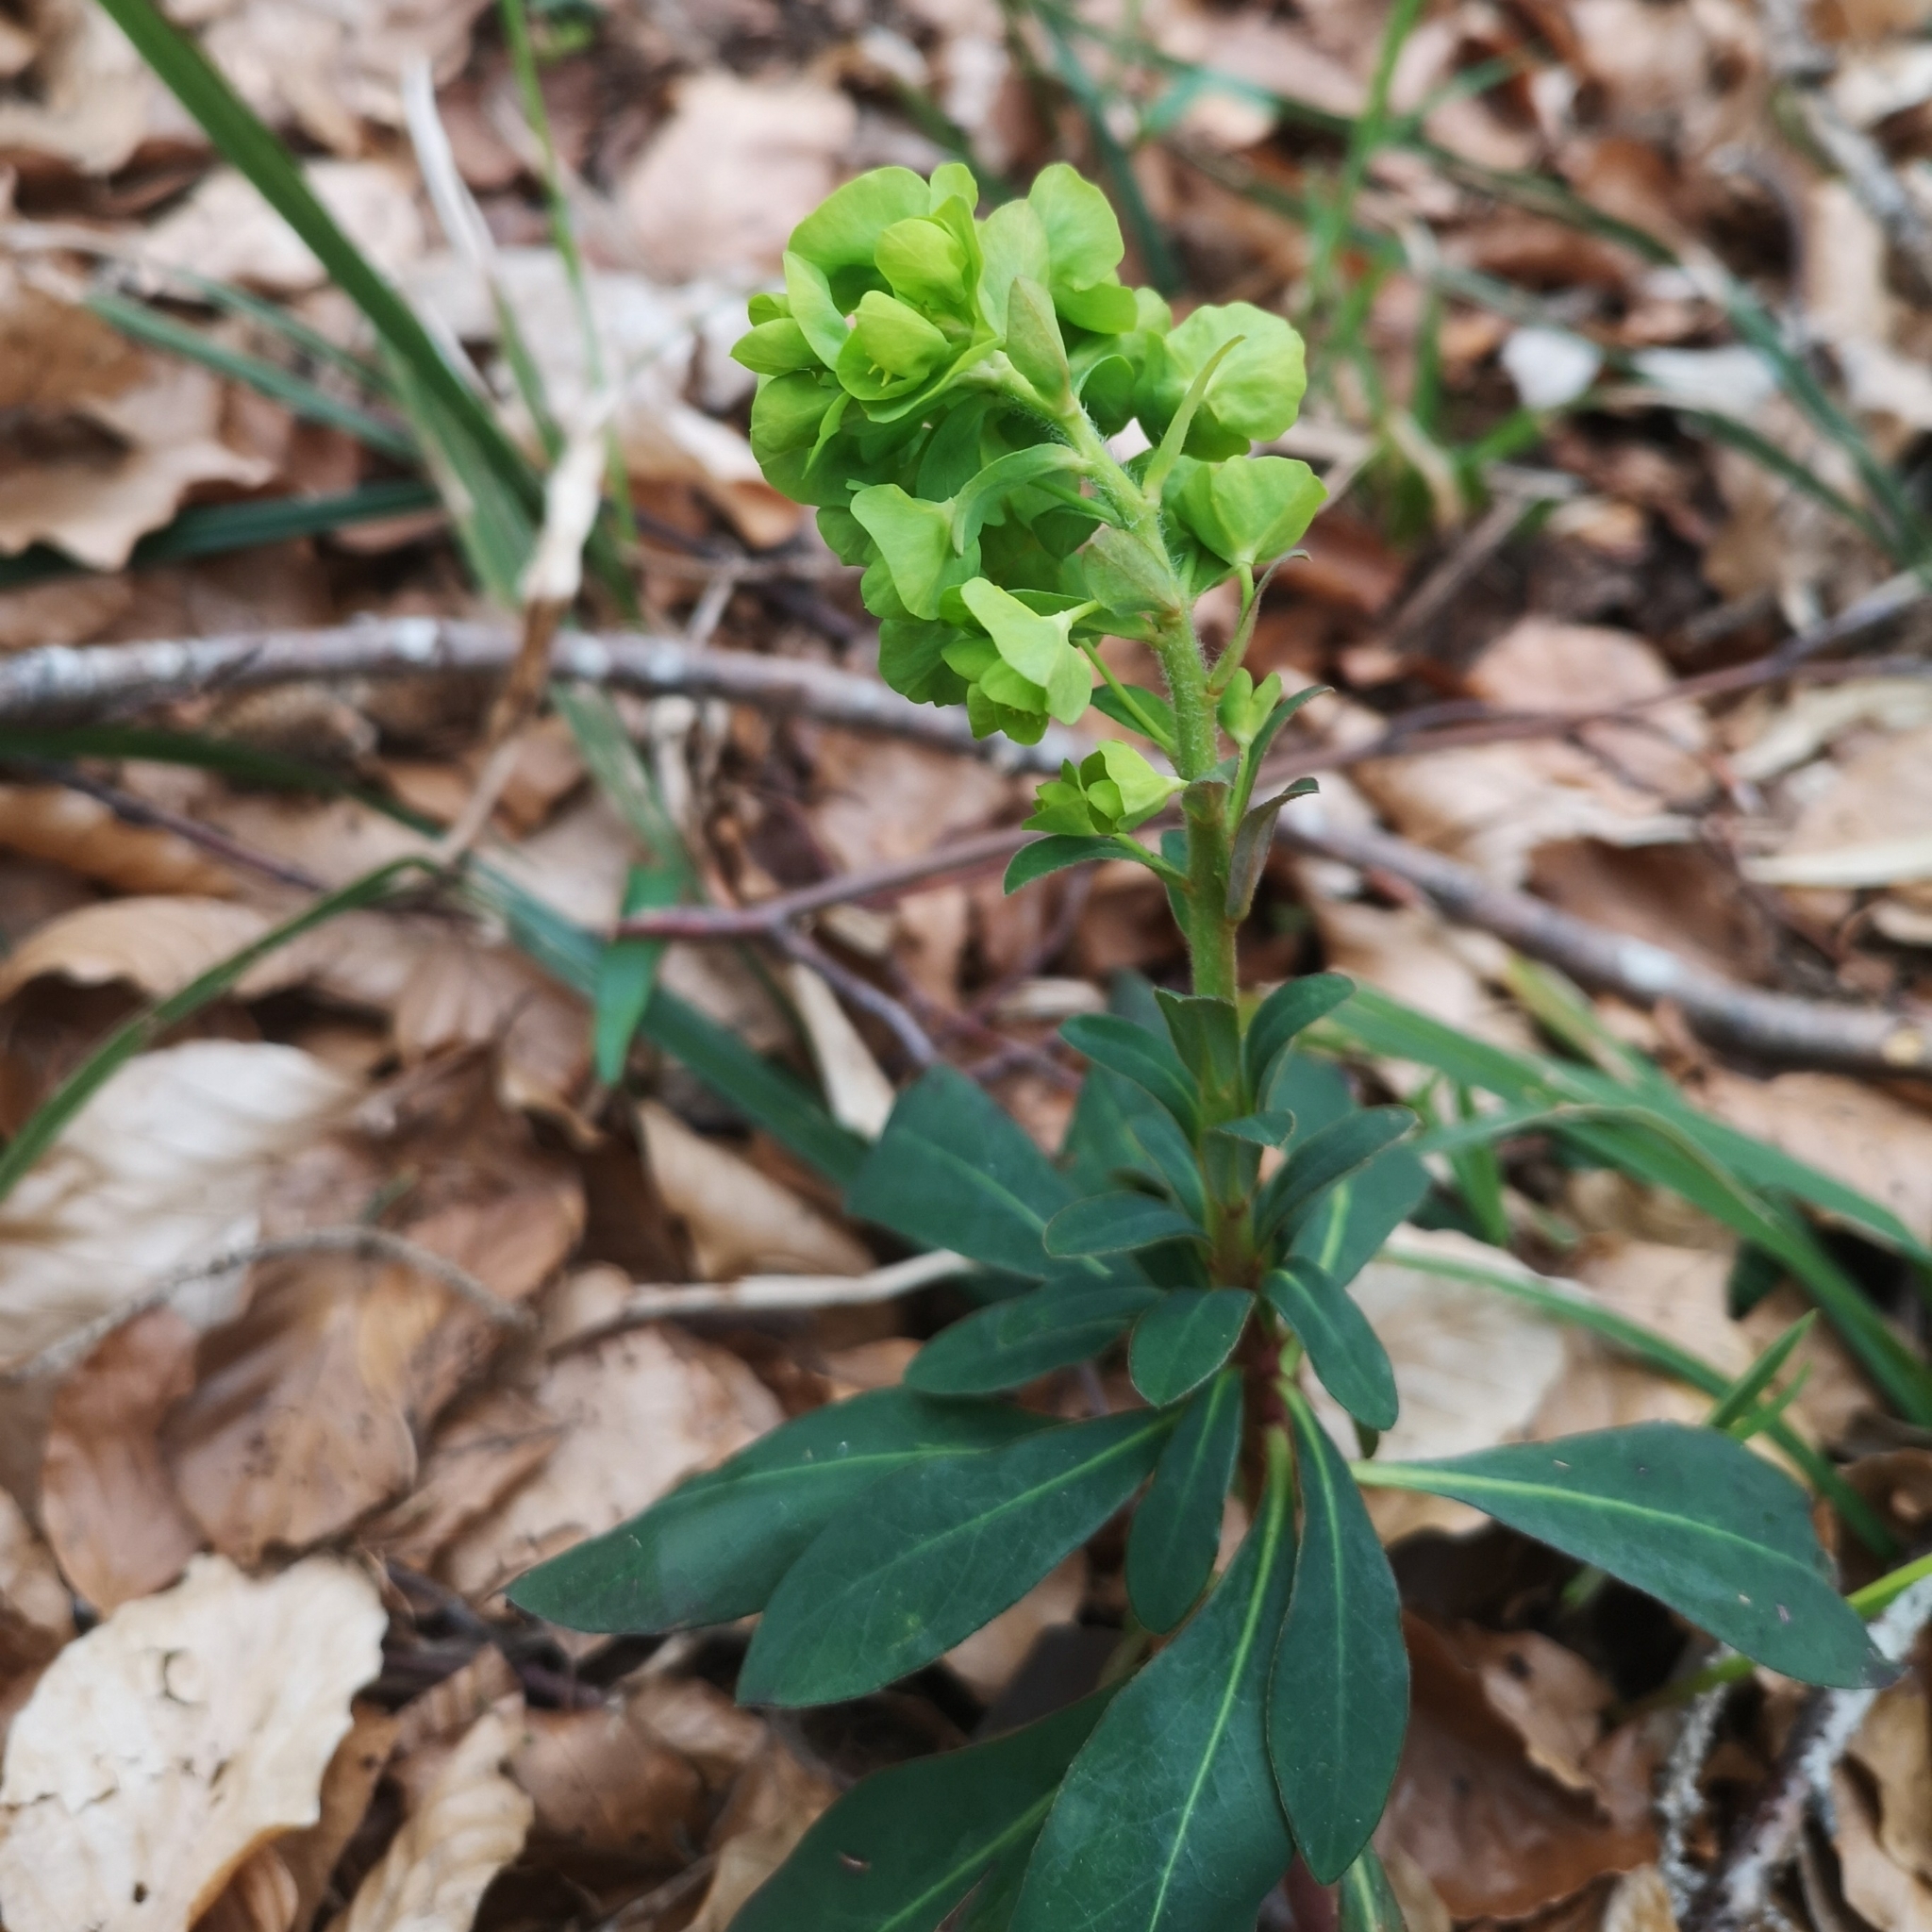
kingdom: Plantae
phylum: Tracheophyta
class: Magnoliopsida
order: Malpighiales
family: Euphorbiaceae
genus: Euphorbia
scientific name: Euphorbia amygdaloides
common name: Wood spurge
